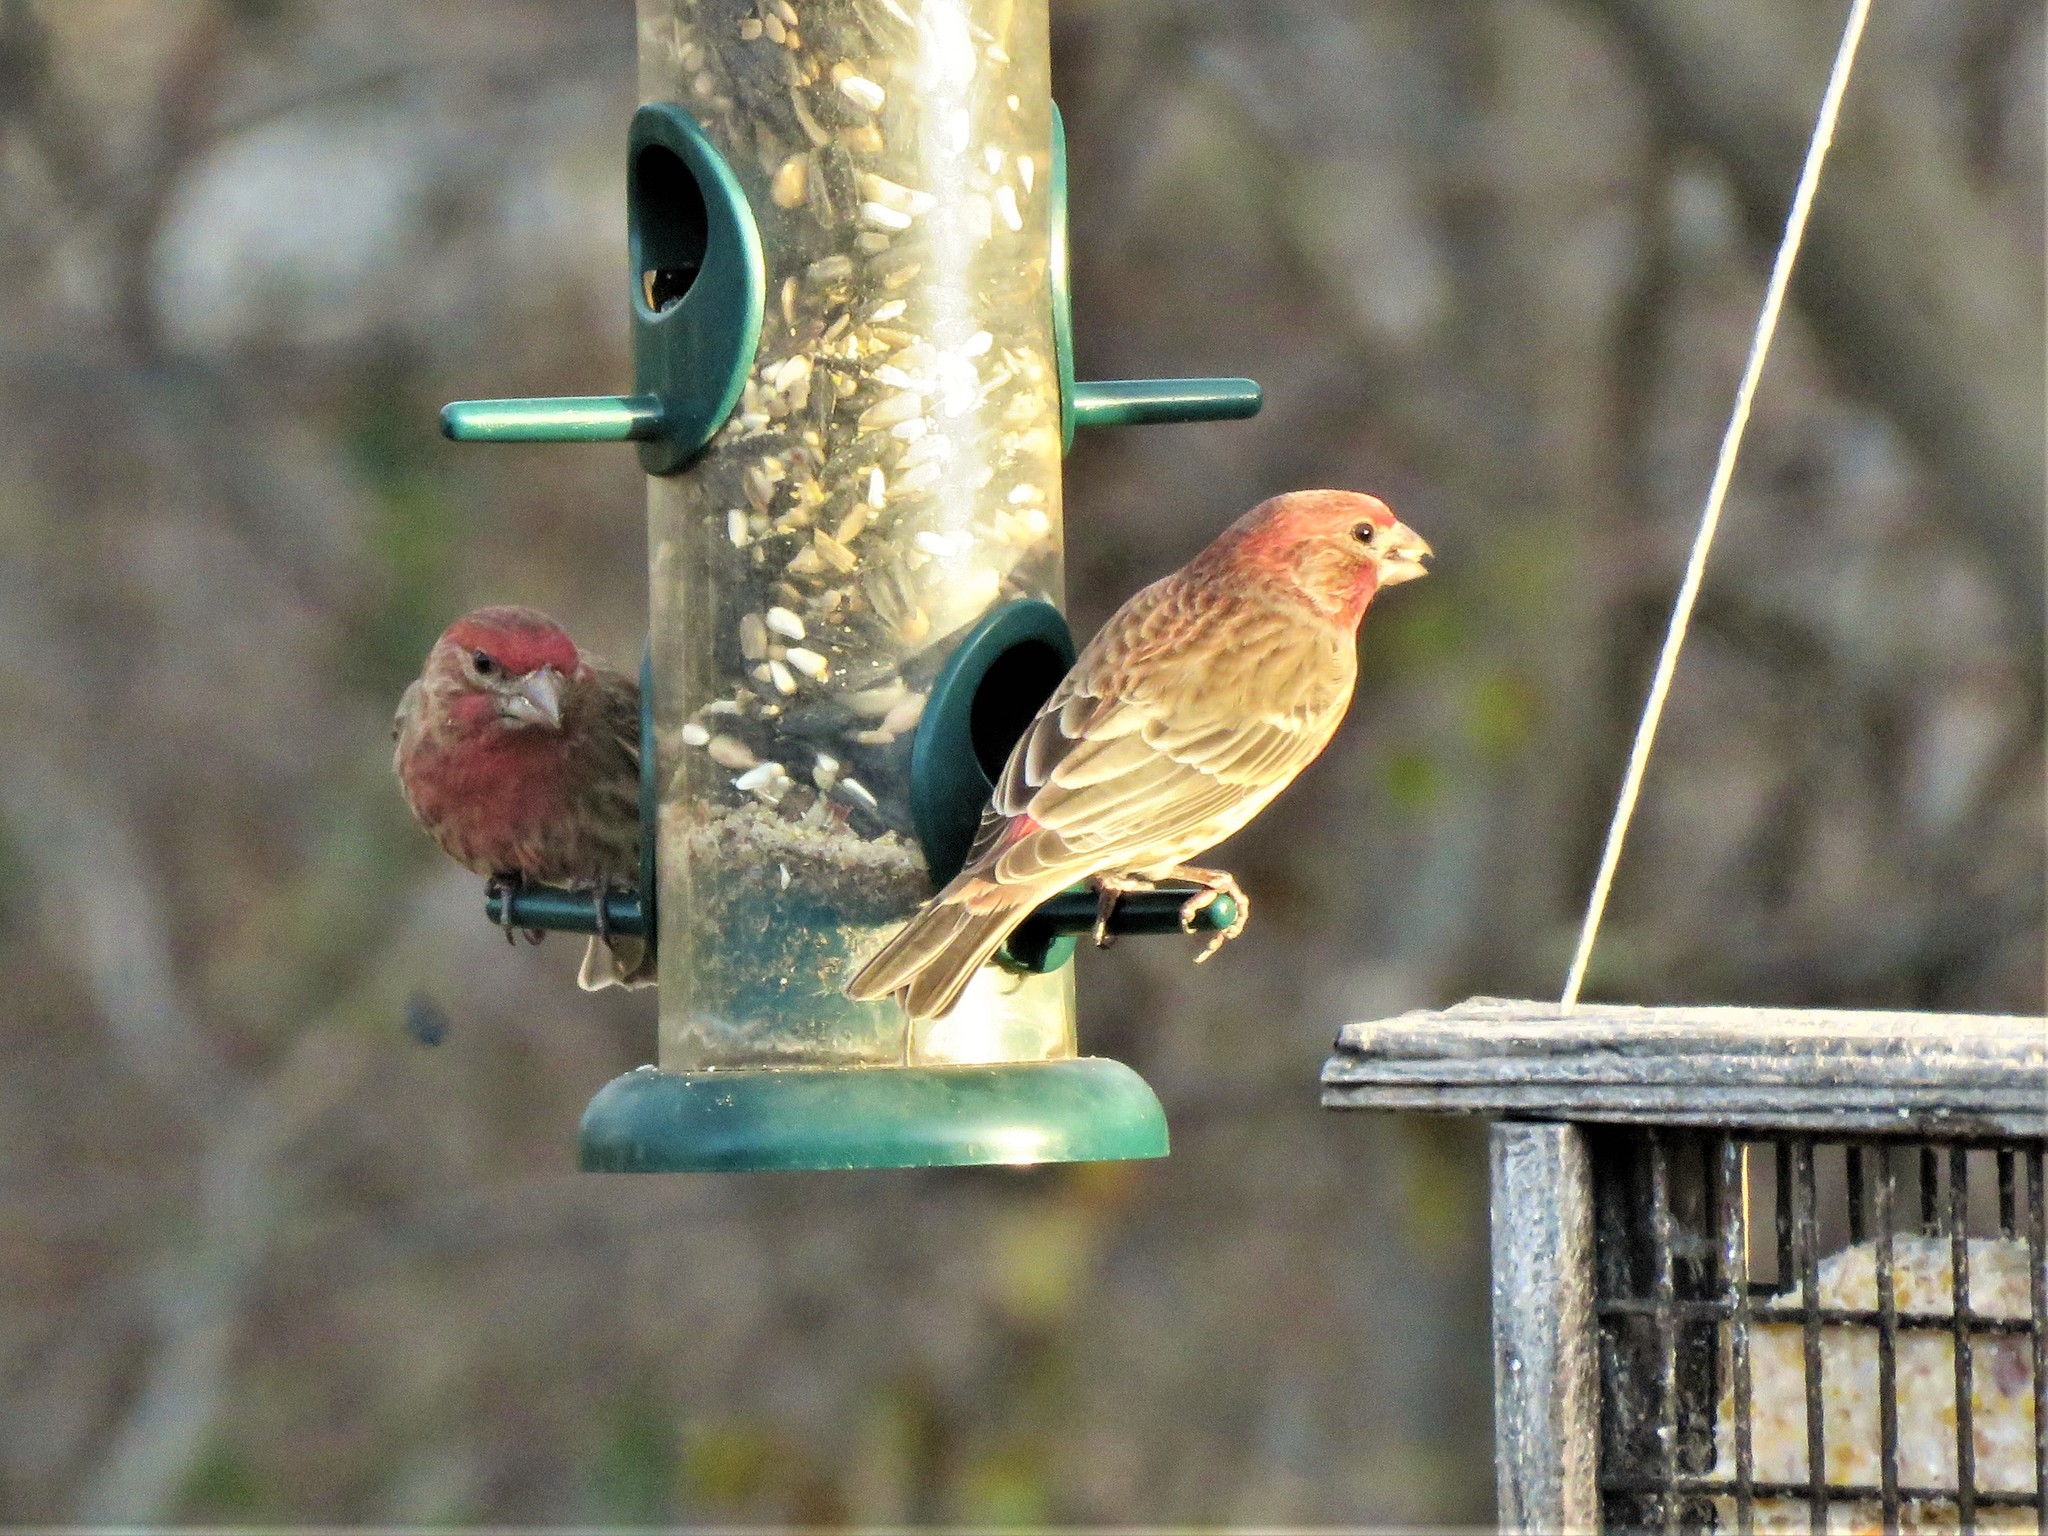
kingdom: Animalia
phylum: Chordata
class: Aves
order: Passeriformes
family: Fringillidae
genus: Haemorhous
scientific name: Haemorhous mexicanus
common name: House finch
